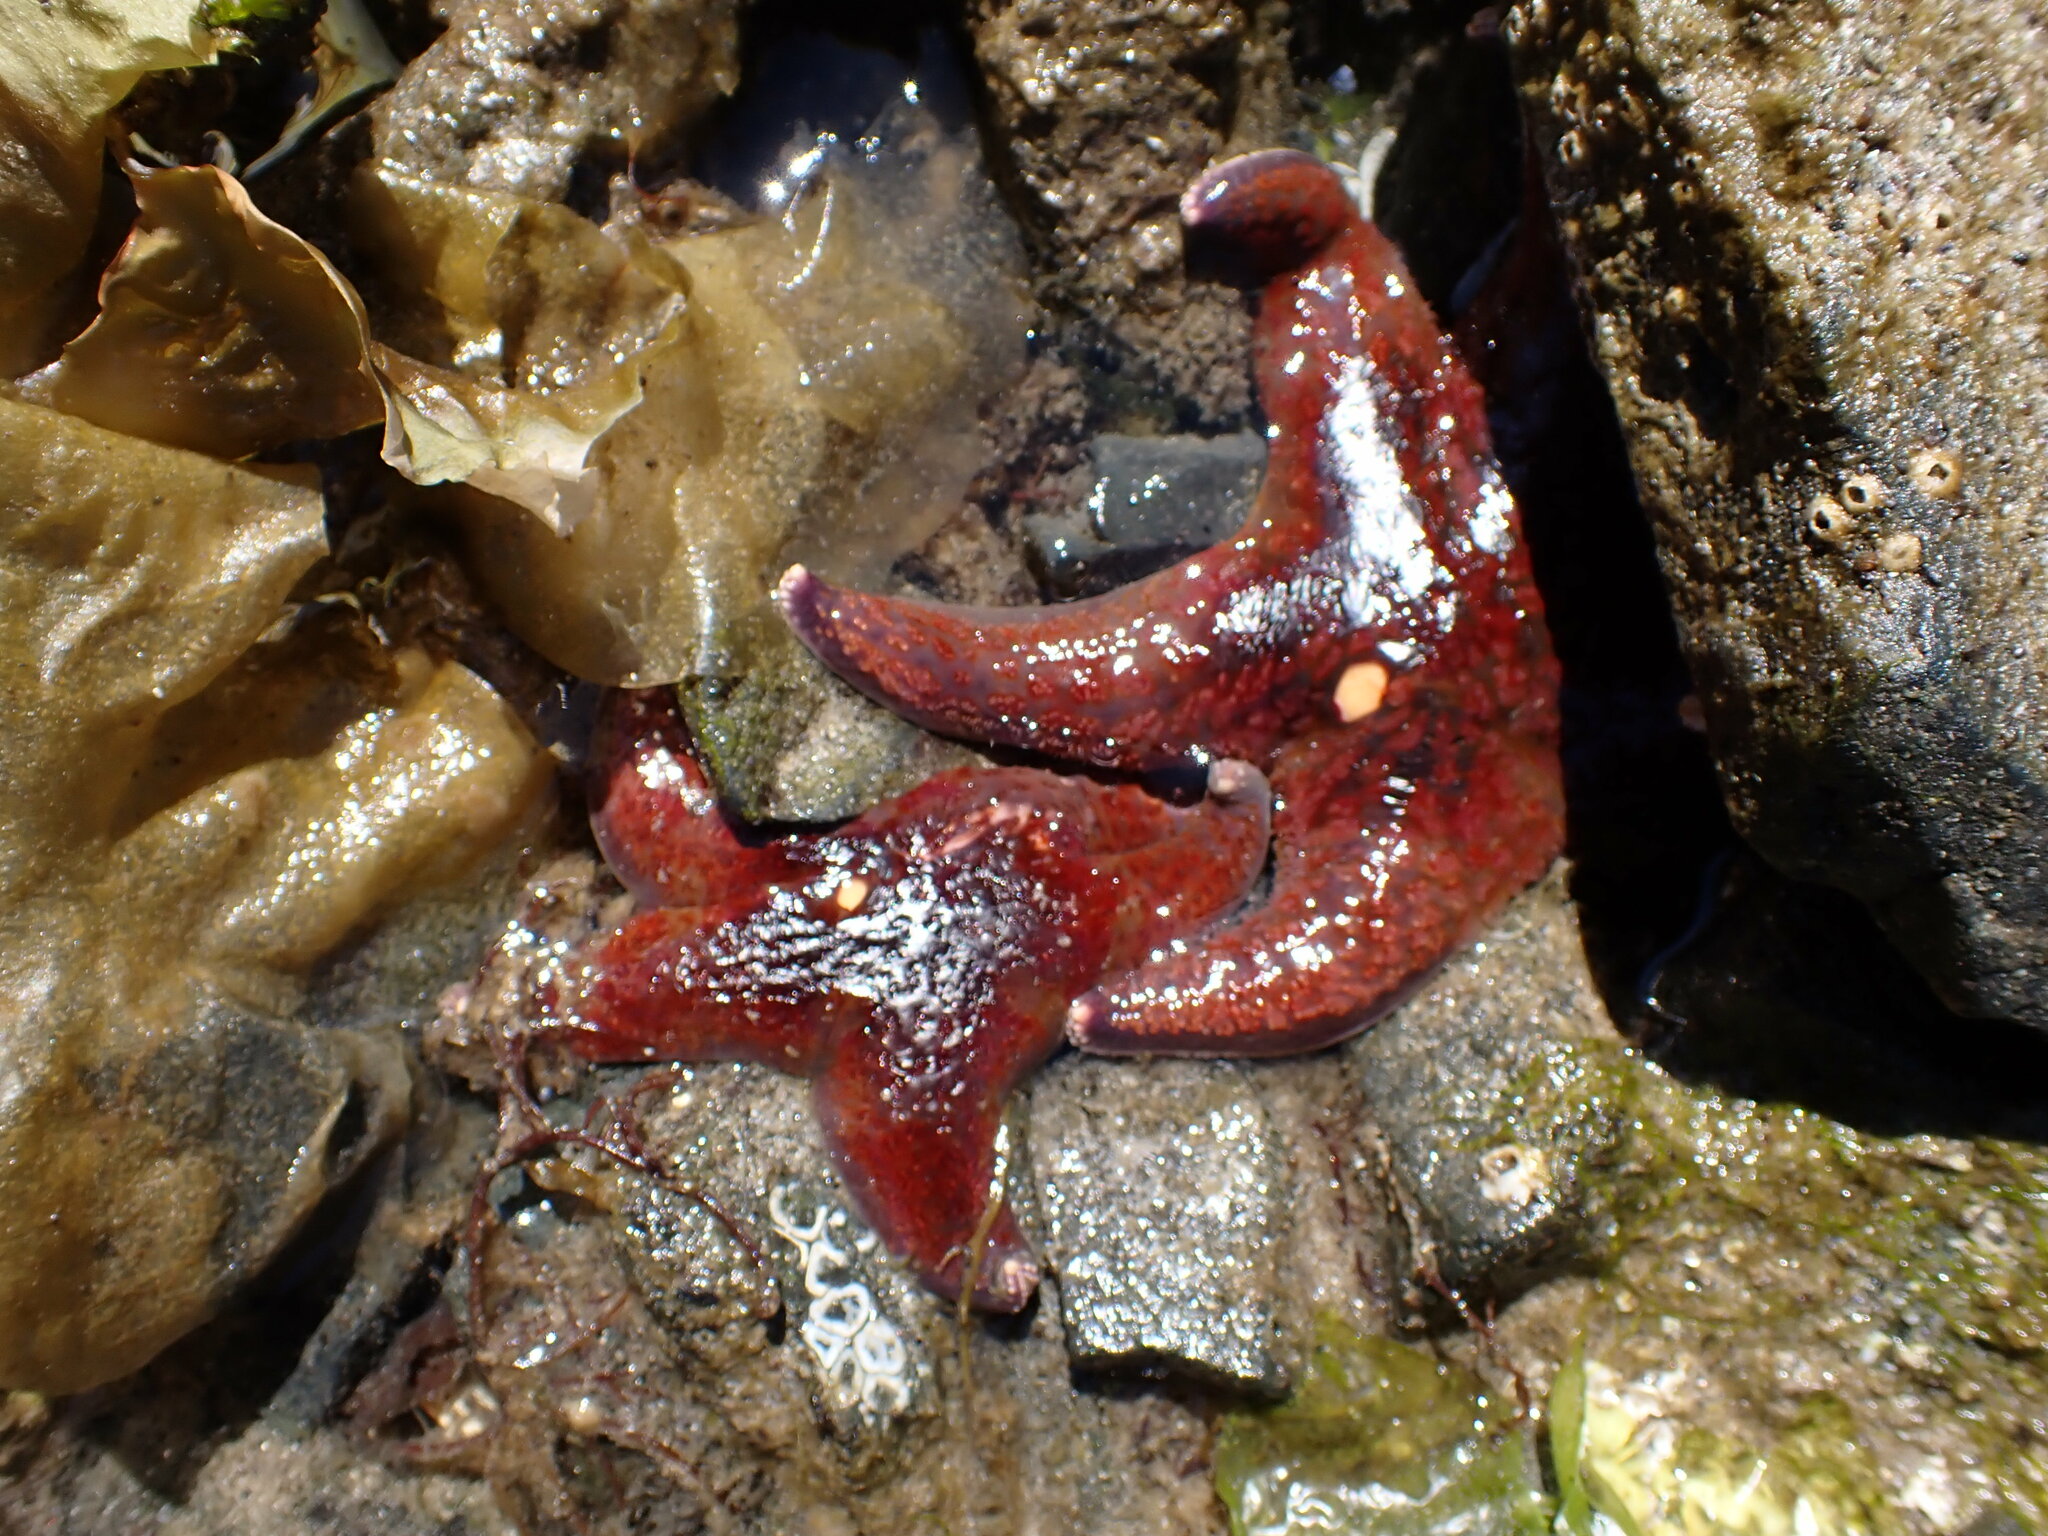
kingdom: Animalia
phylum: Echinodermata
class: Asteroidea
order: Valvatida
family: Asteropseidae
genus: Dermasterias
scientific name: Dermasterias imbricata
